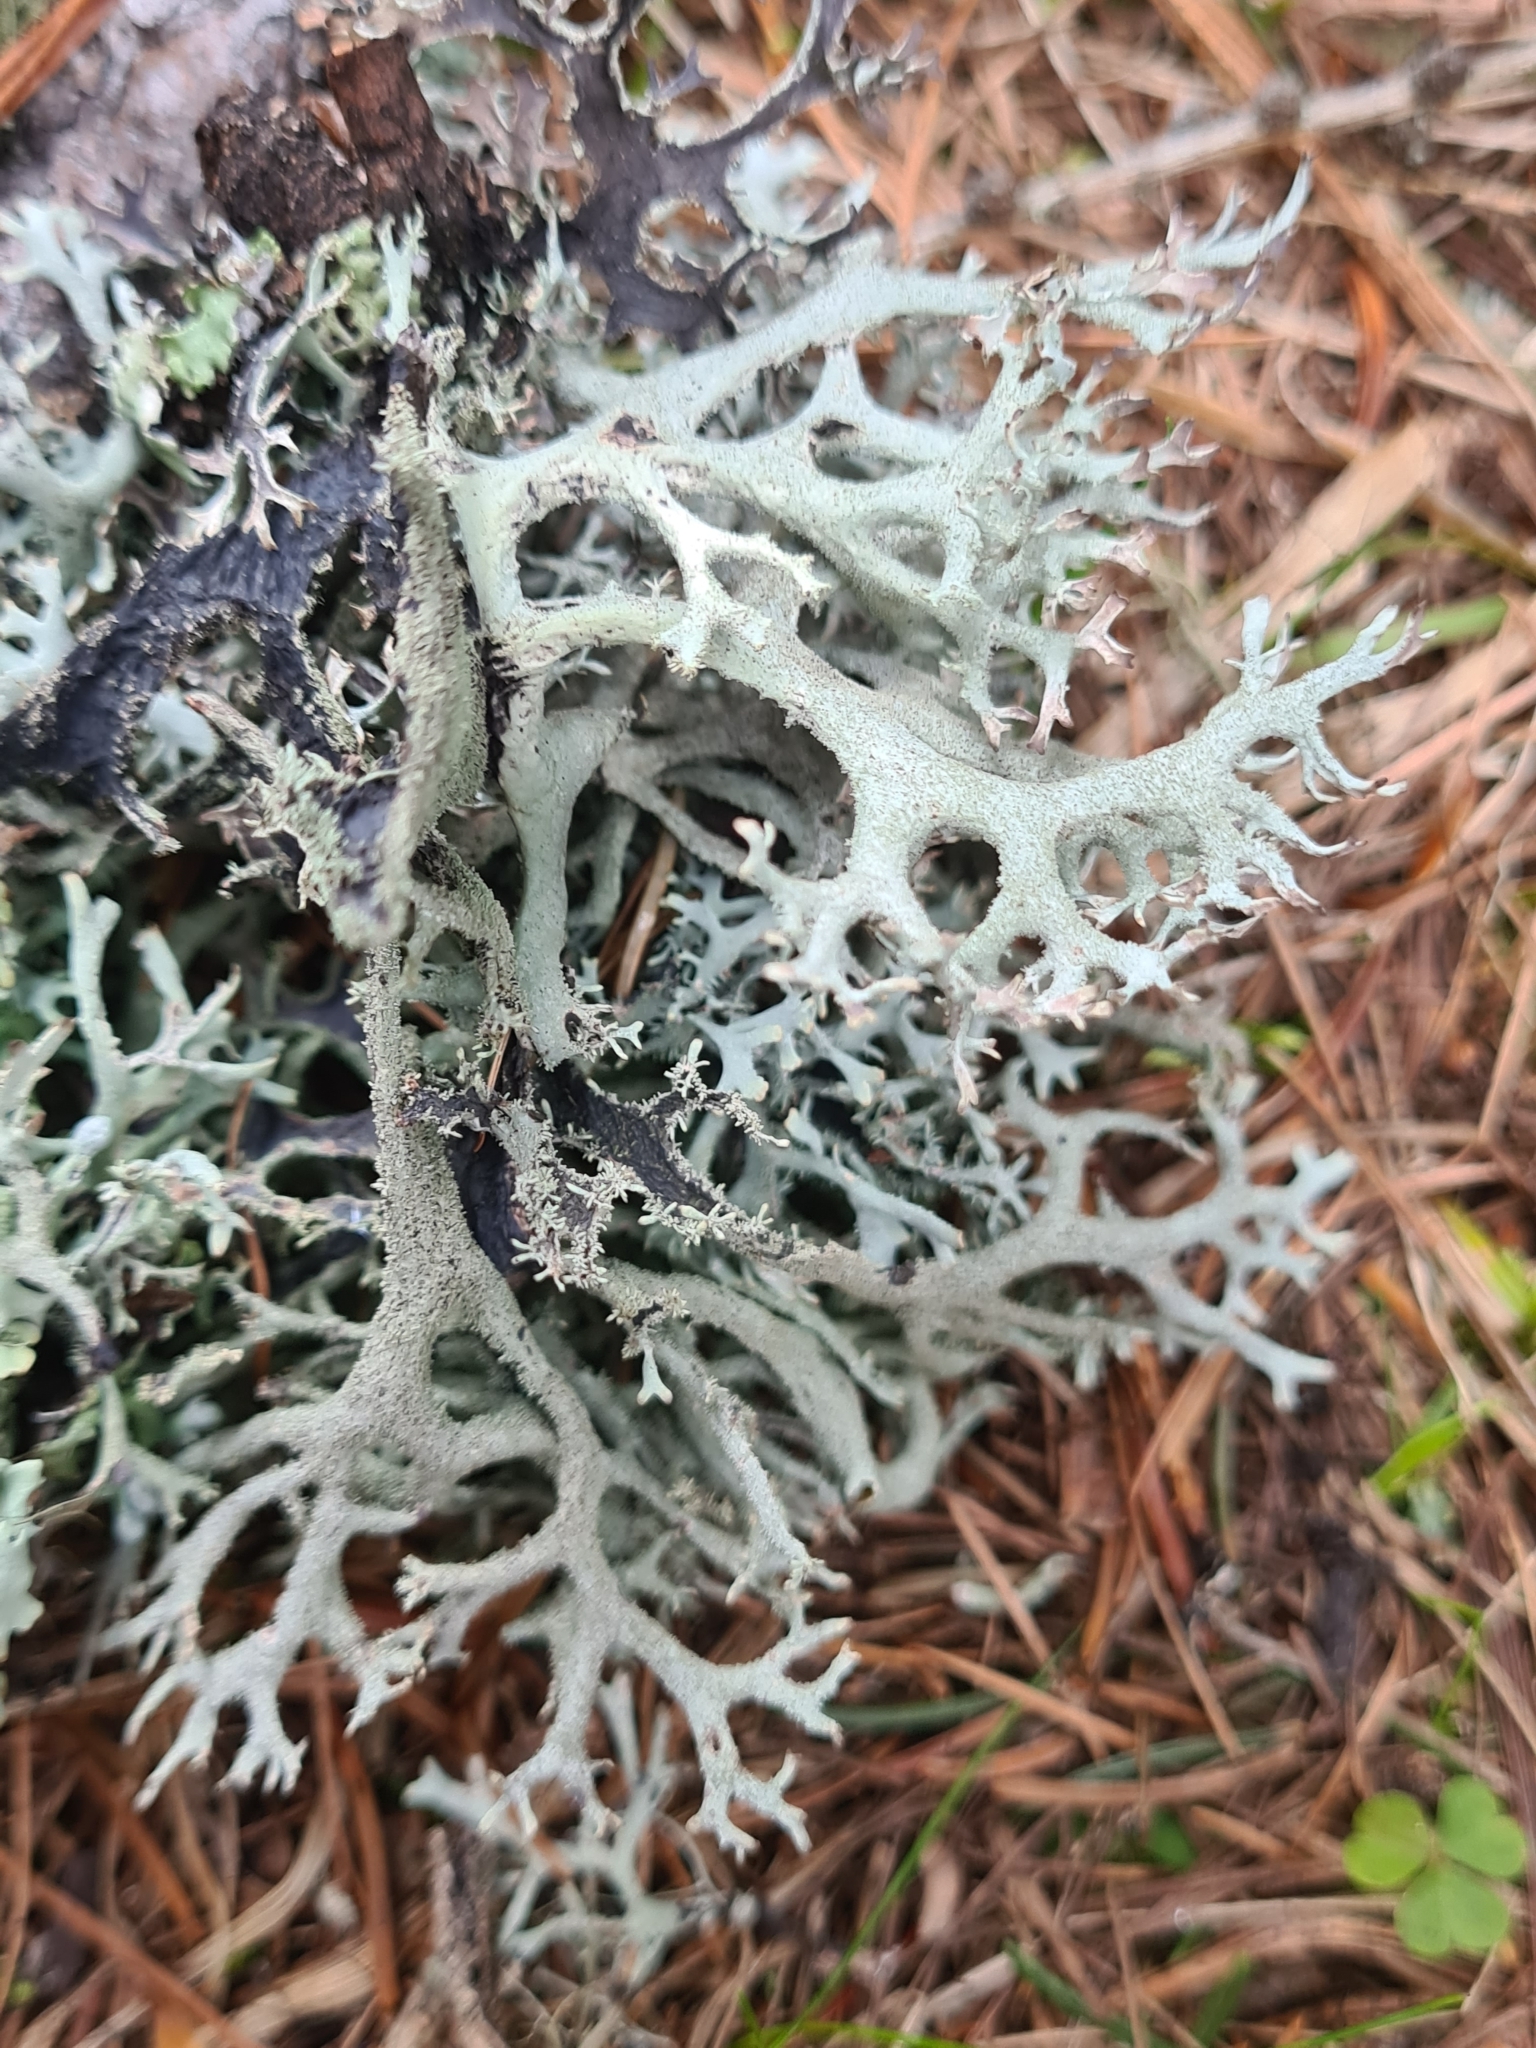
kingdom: Fungi
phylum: Ascomycota
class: Lecanoromycetes
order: Lecanorales
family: Parmeliaceae
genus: Pseudevernia
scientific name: Pseudevernia furfuracea
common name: Tree moss
